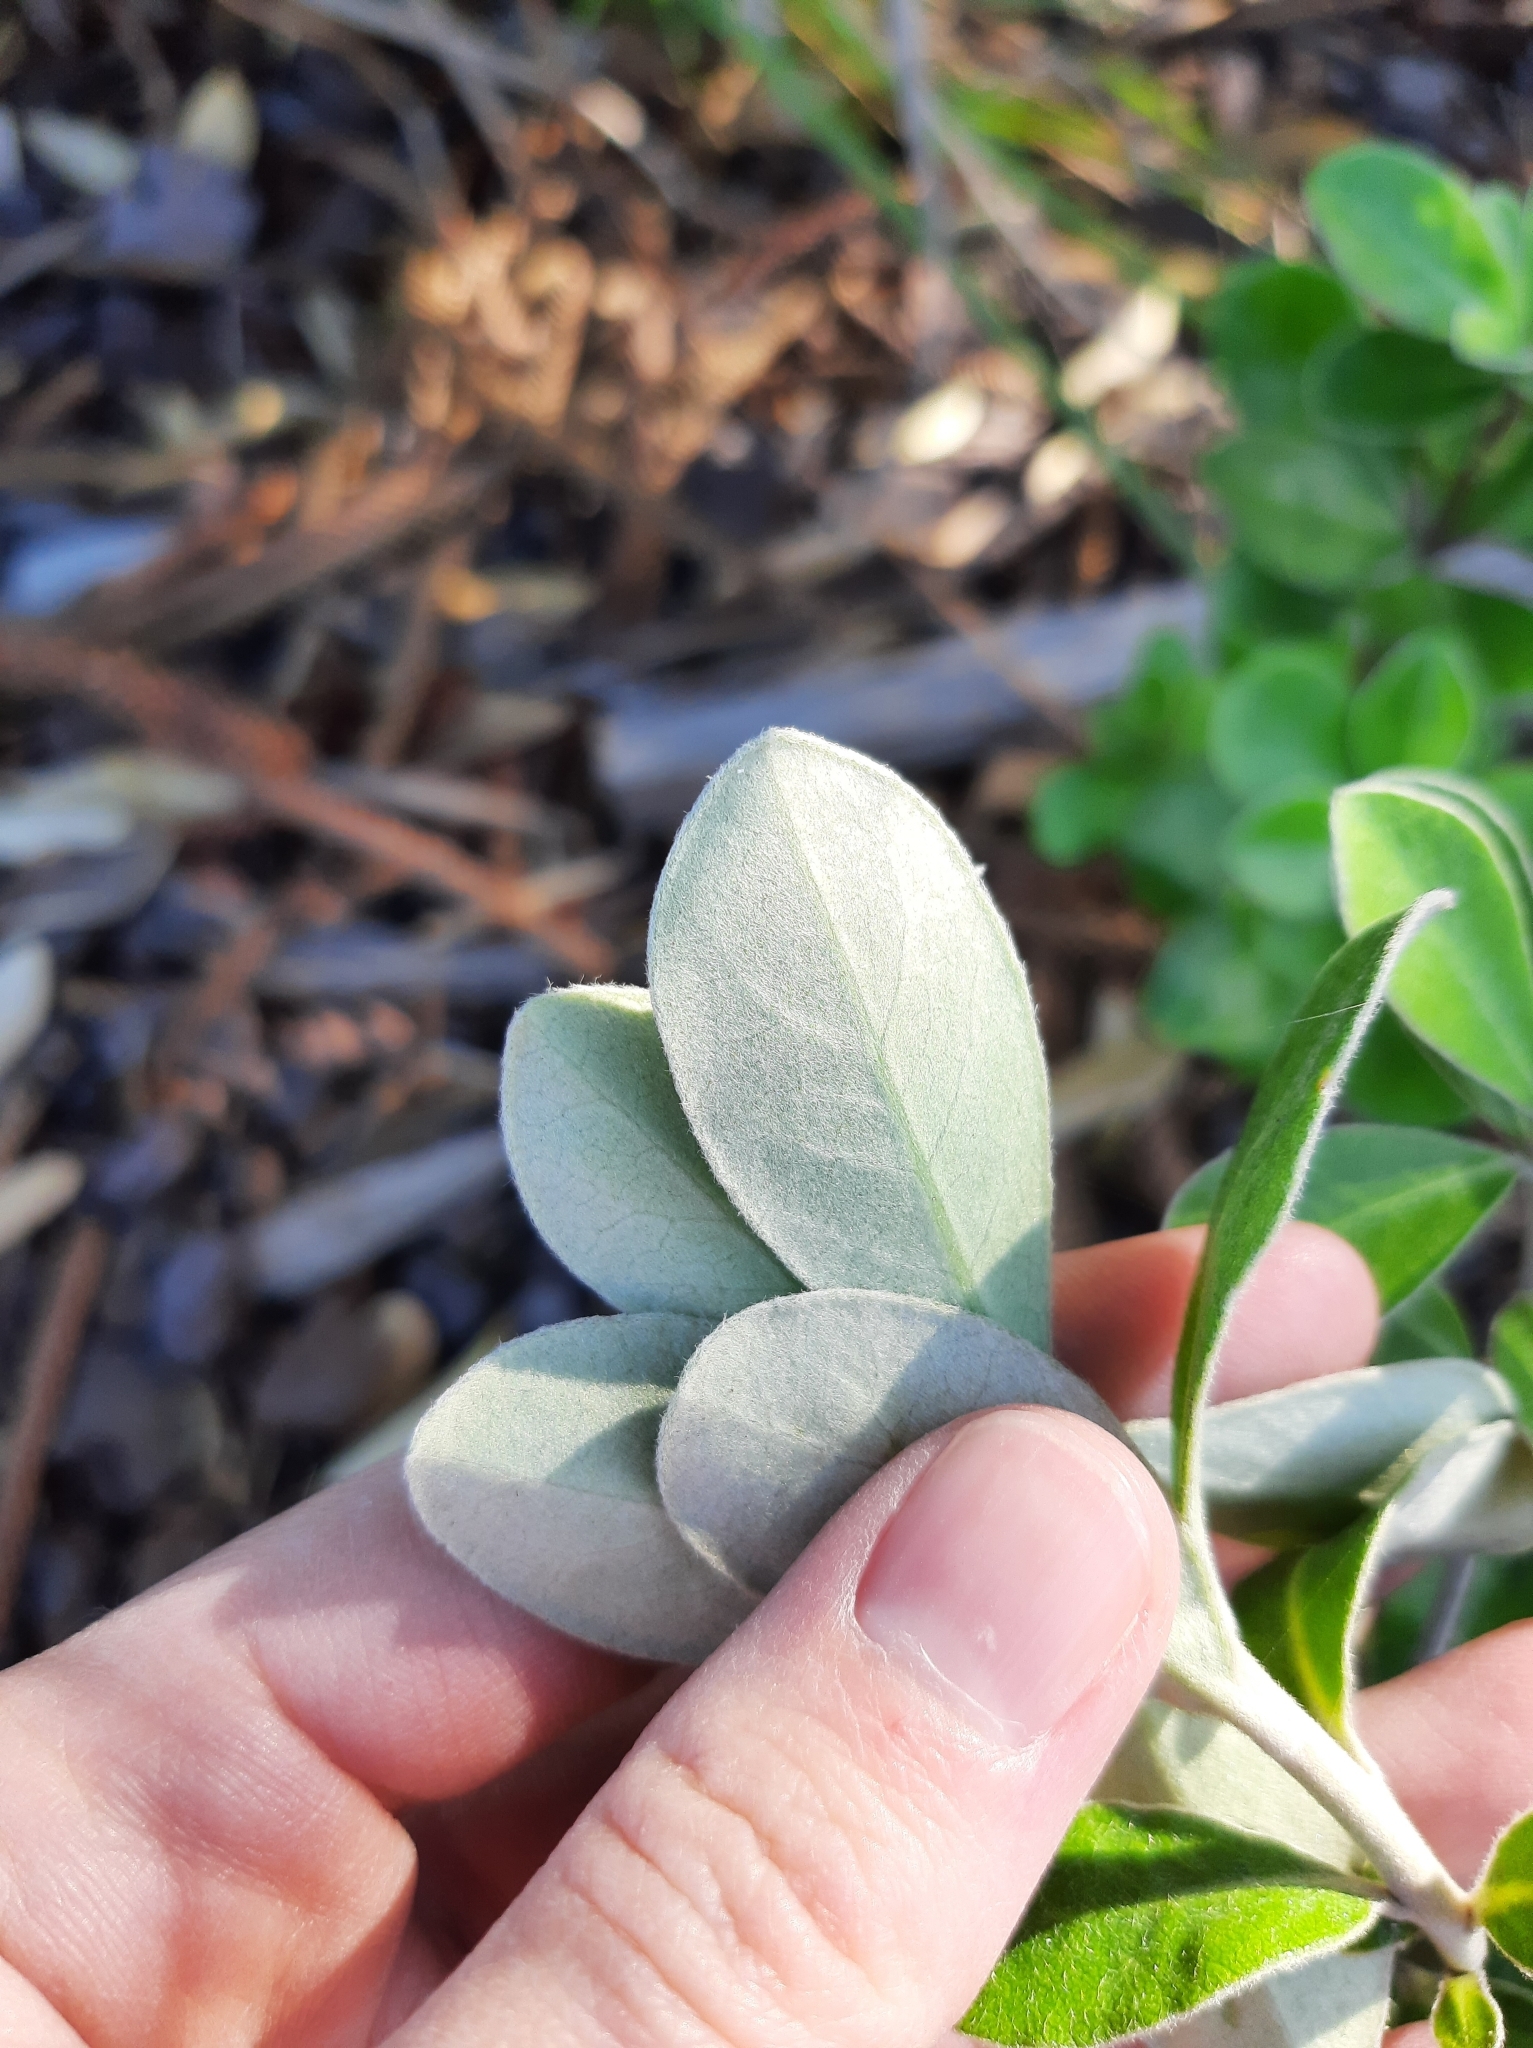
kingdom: Plantae
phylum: Tracheophyta
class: Magnoliopsida
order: Apiales
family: Pittosporaceae
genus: Pittosporum
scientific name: Pittosporum crassifolium
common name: Karo
